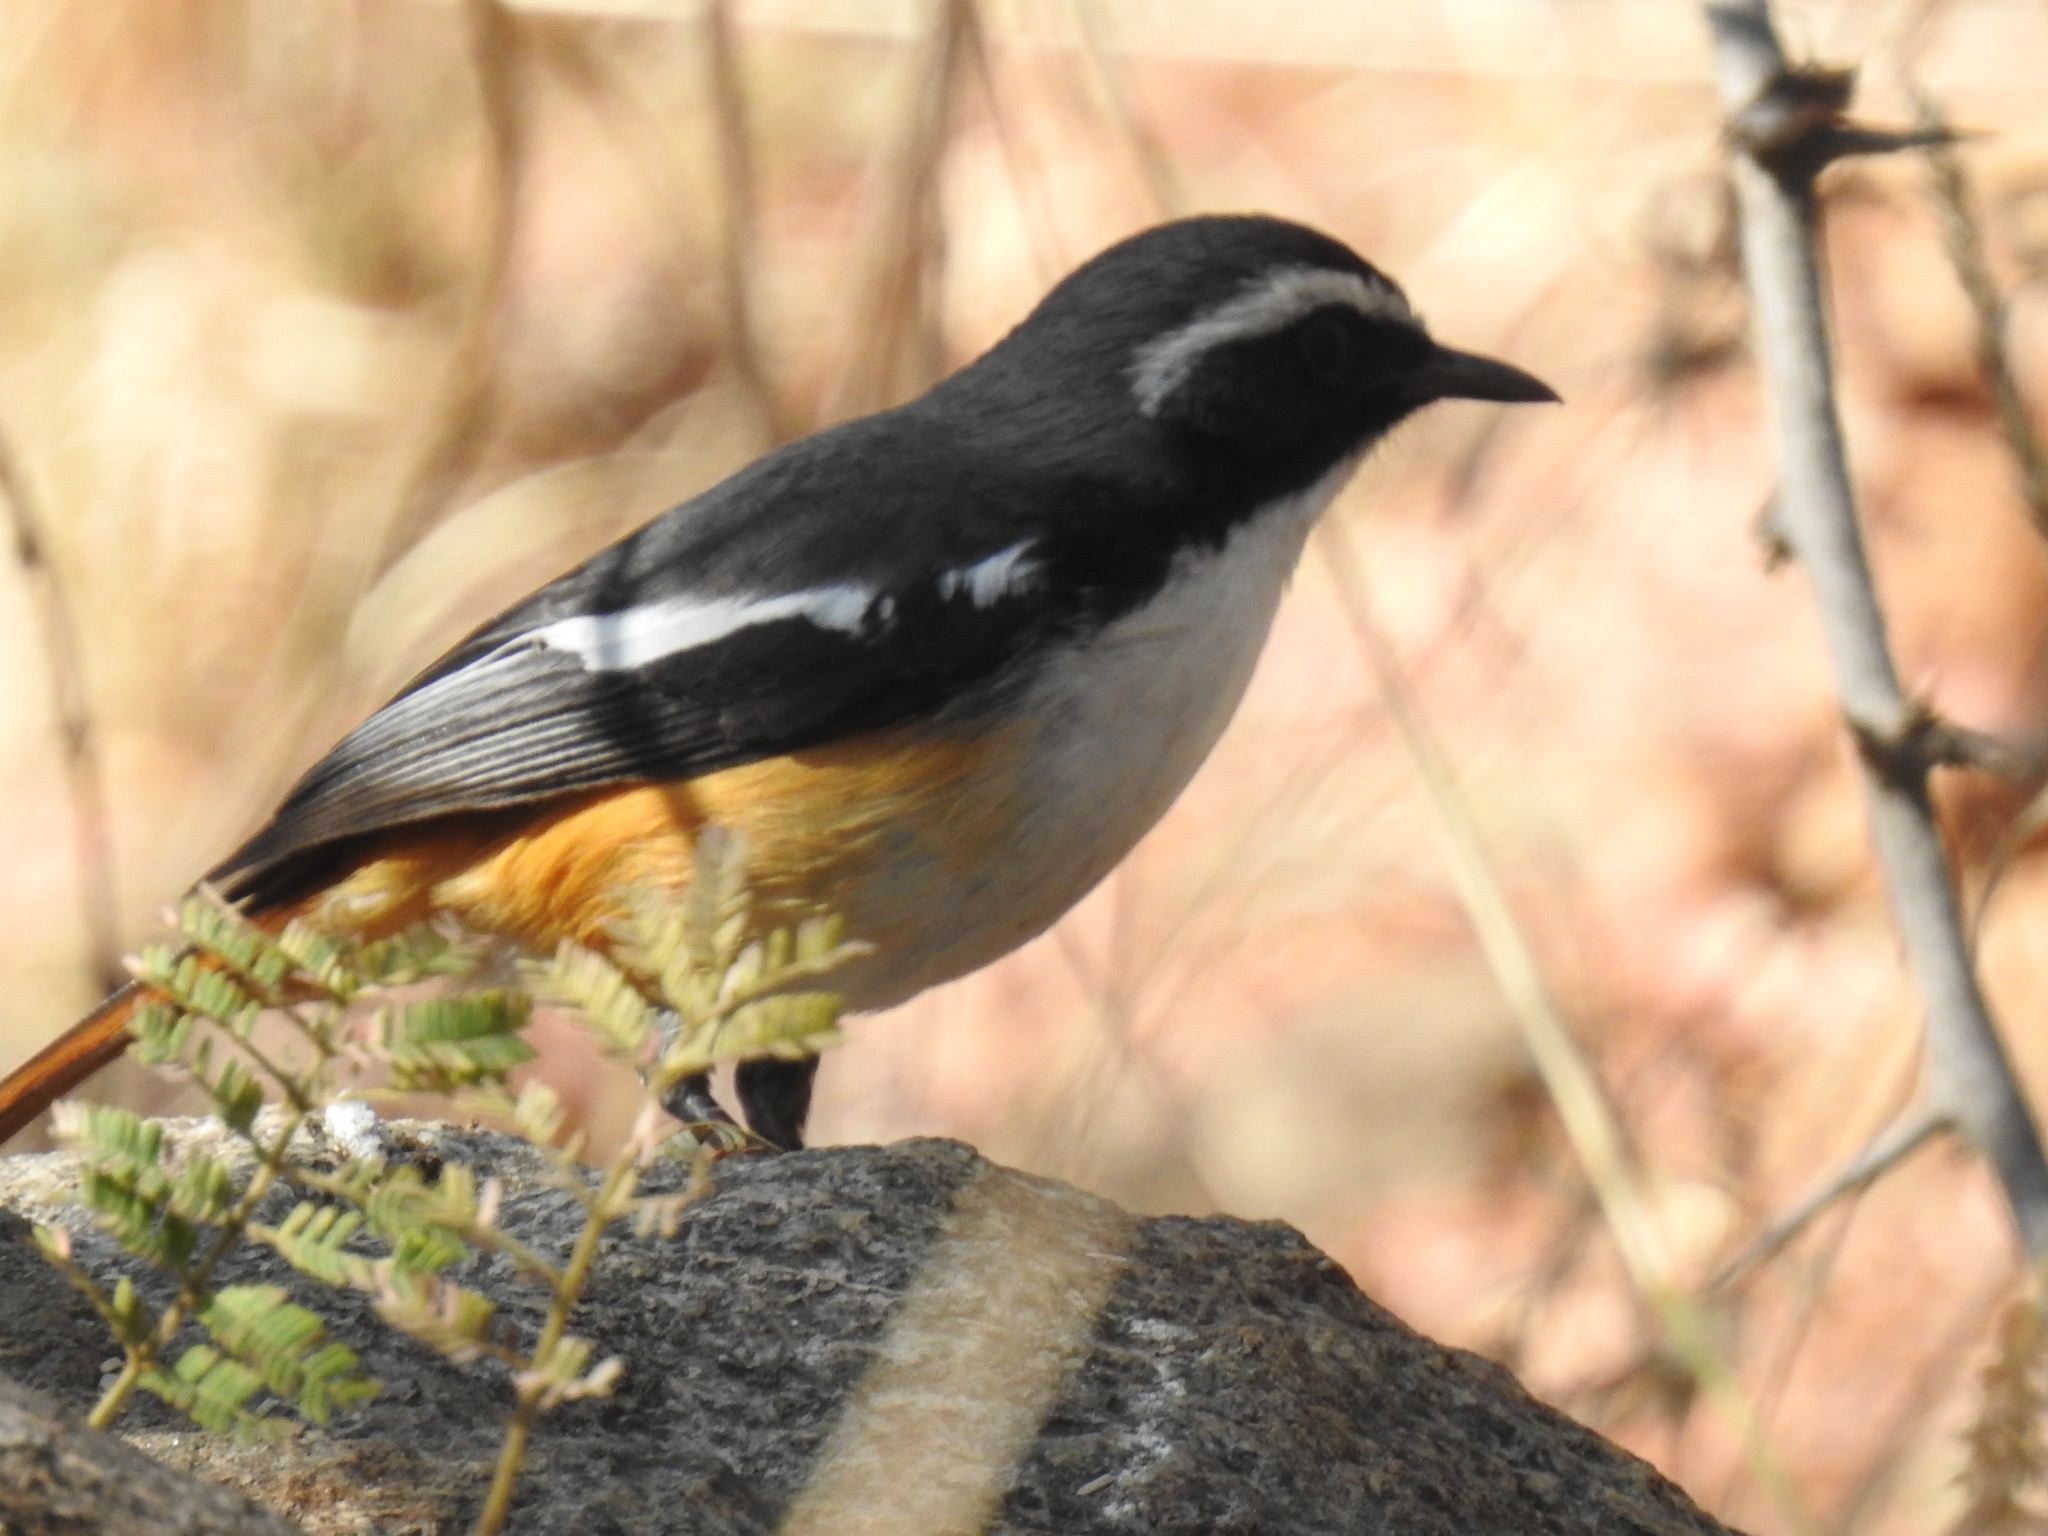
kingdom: Animalia
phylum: Chordata
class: Aves
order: Passeriformes
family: Muscicapidae
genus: Cossypha
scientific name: Cossypha humeralis
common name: White-throated robin-chat
